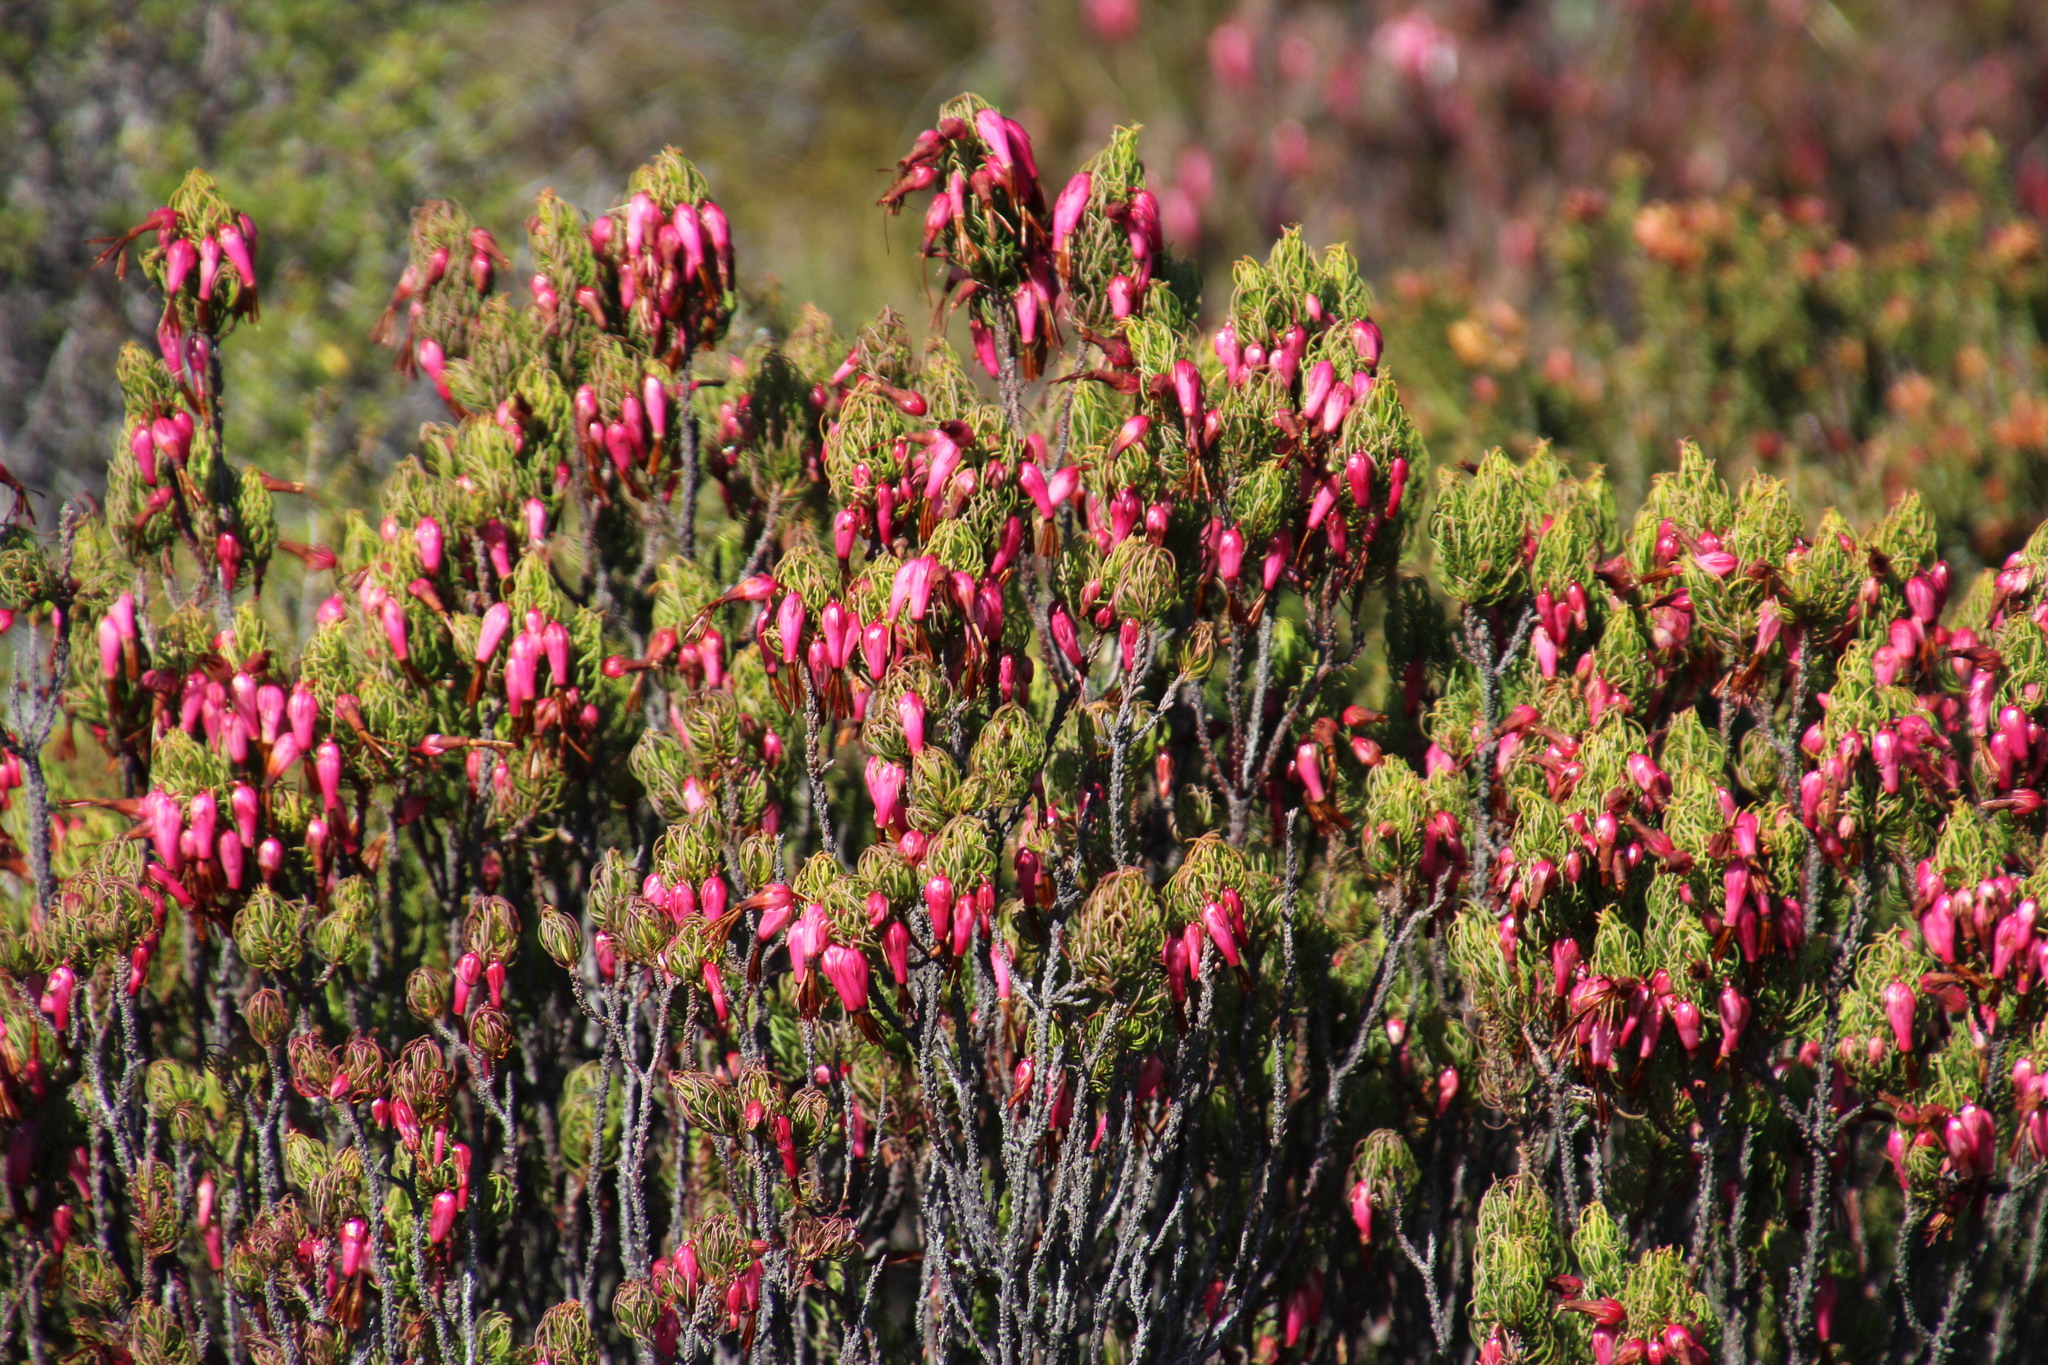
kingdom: Plantae
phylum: Tracheophyta
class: Magnoliopsida
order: Ericales
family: Ericaceae
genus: Erica
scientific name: Erica plukenetii
